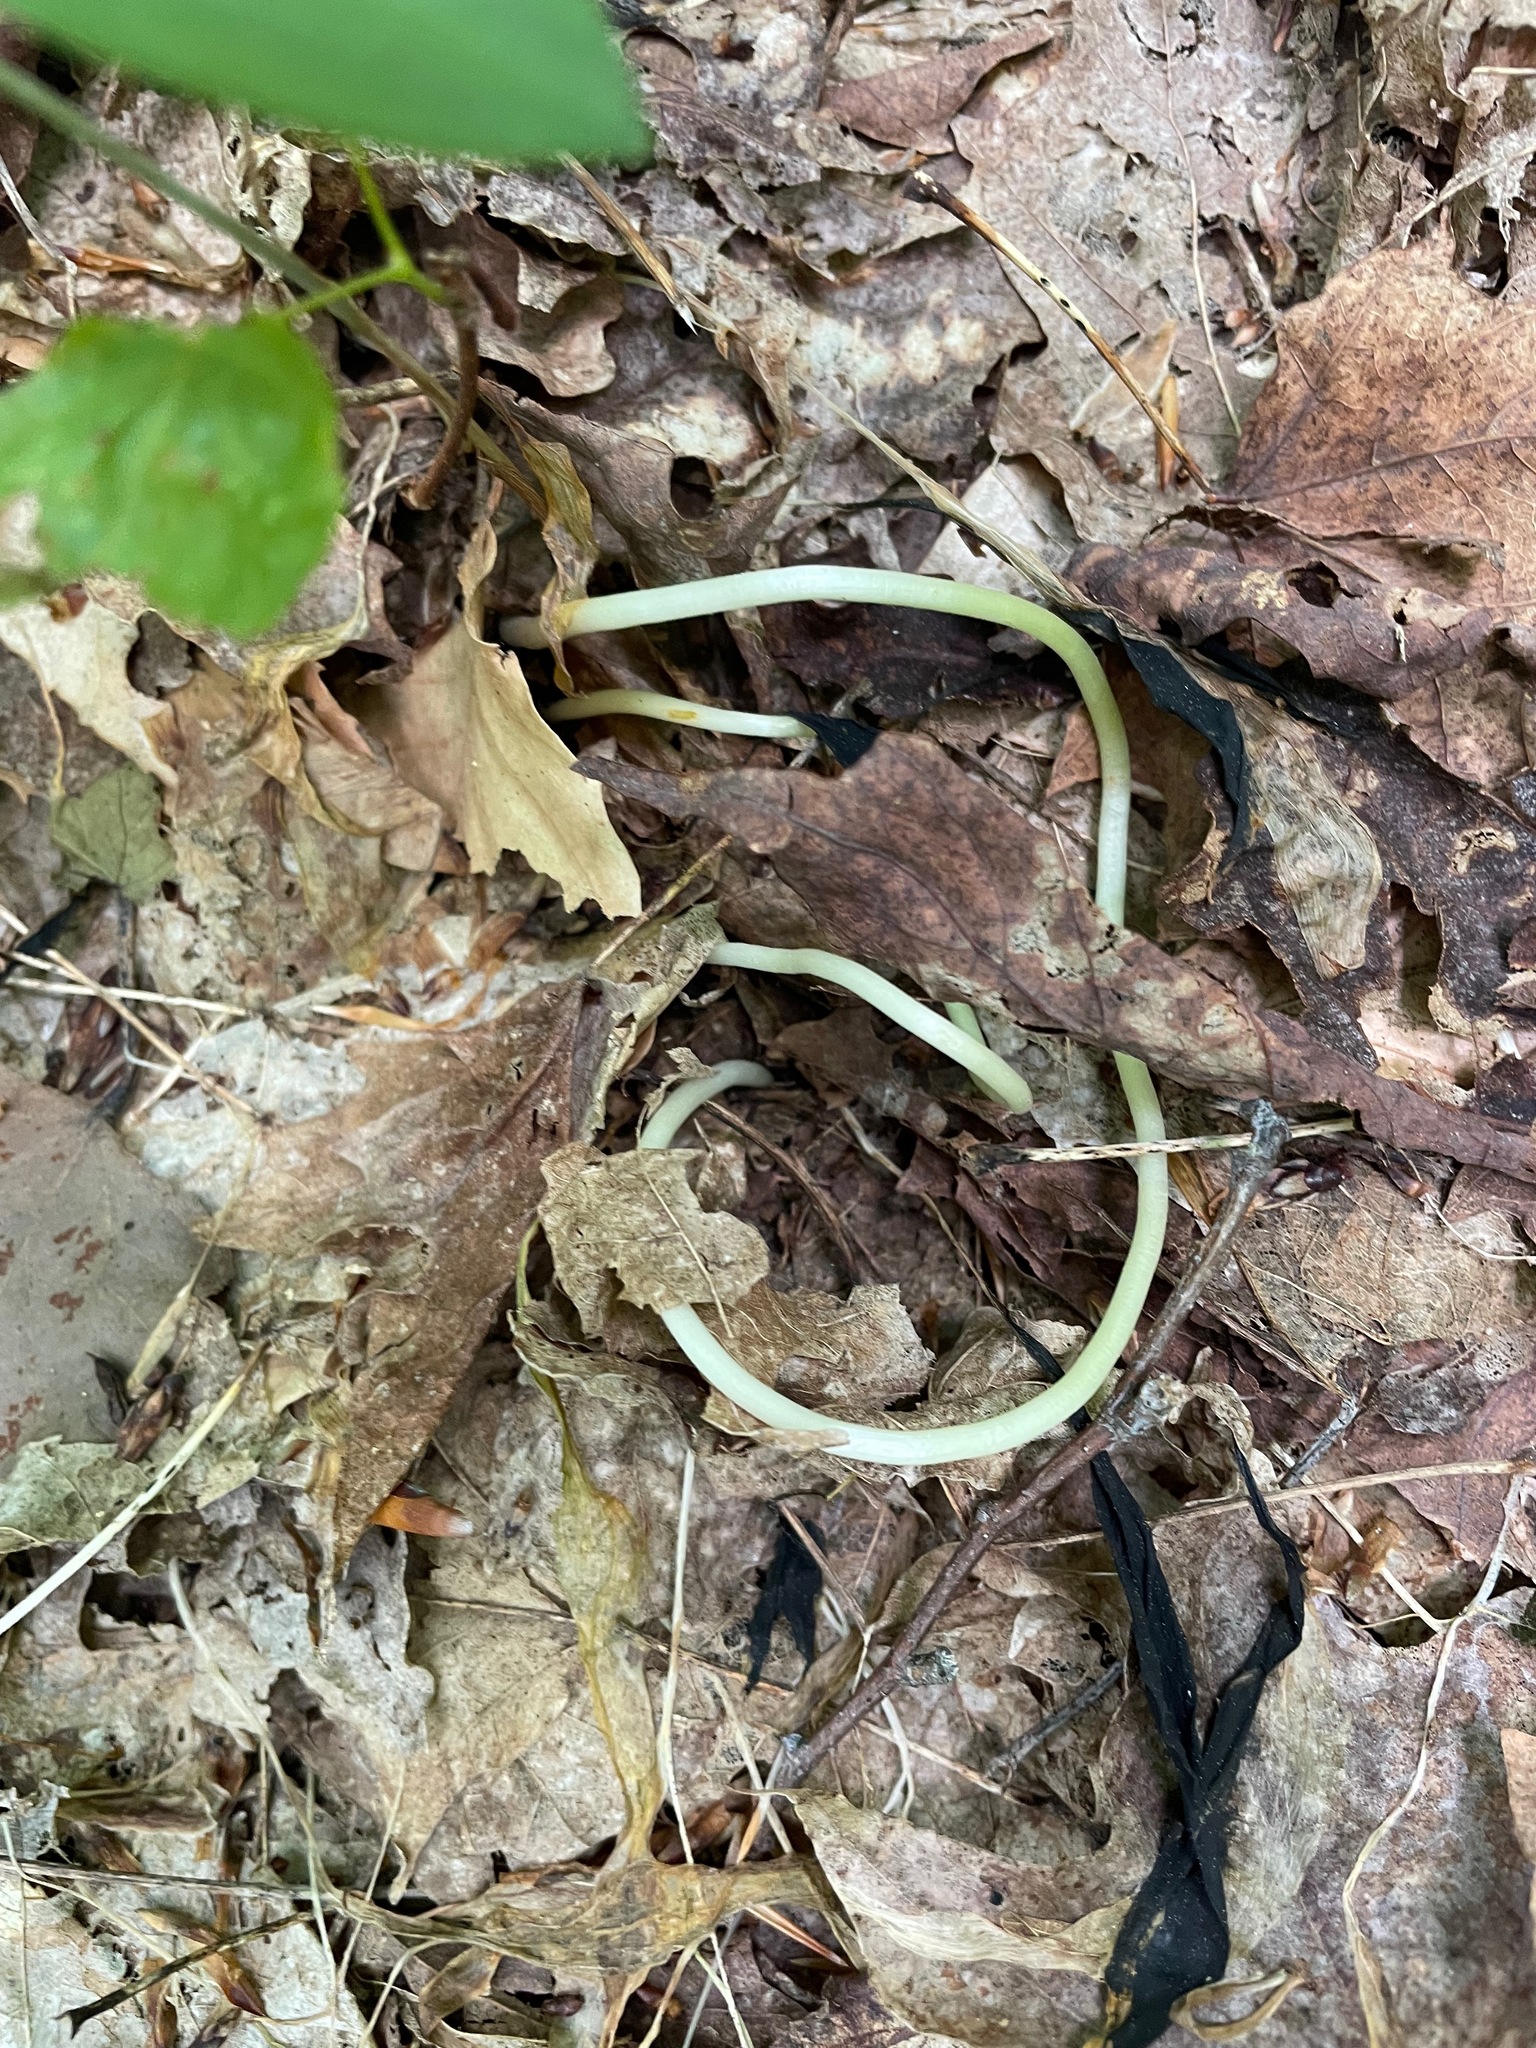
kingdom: Plantae
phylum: Tracheophyta
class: Liliopsida
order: Liliales
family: Liliaceae
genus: Erythronium
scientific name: Erythronium americanum
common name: Yellow adder's-tongue
